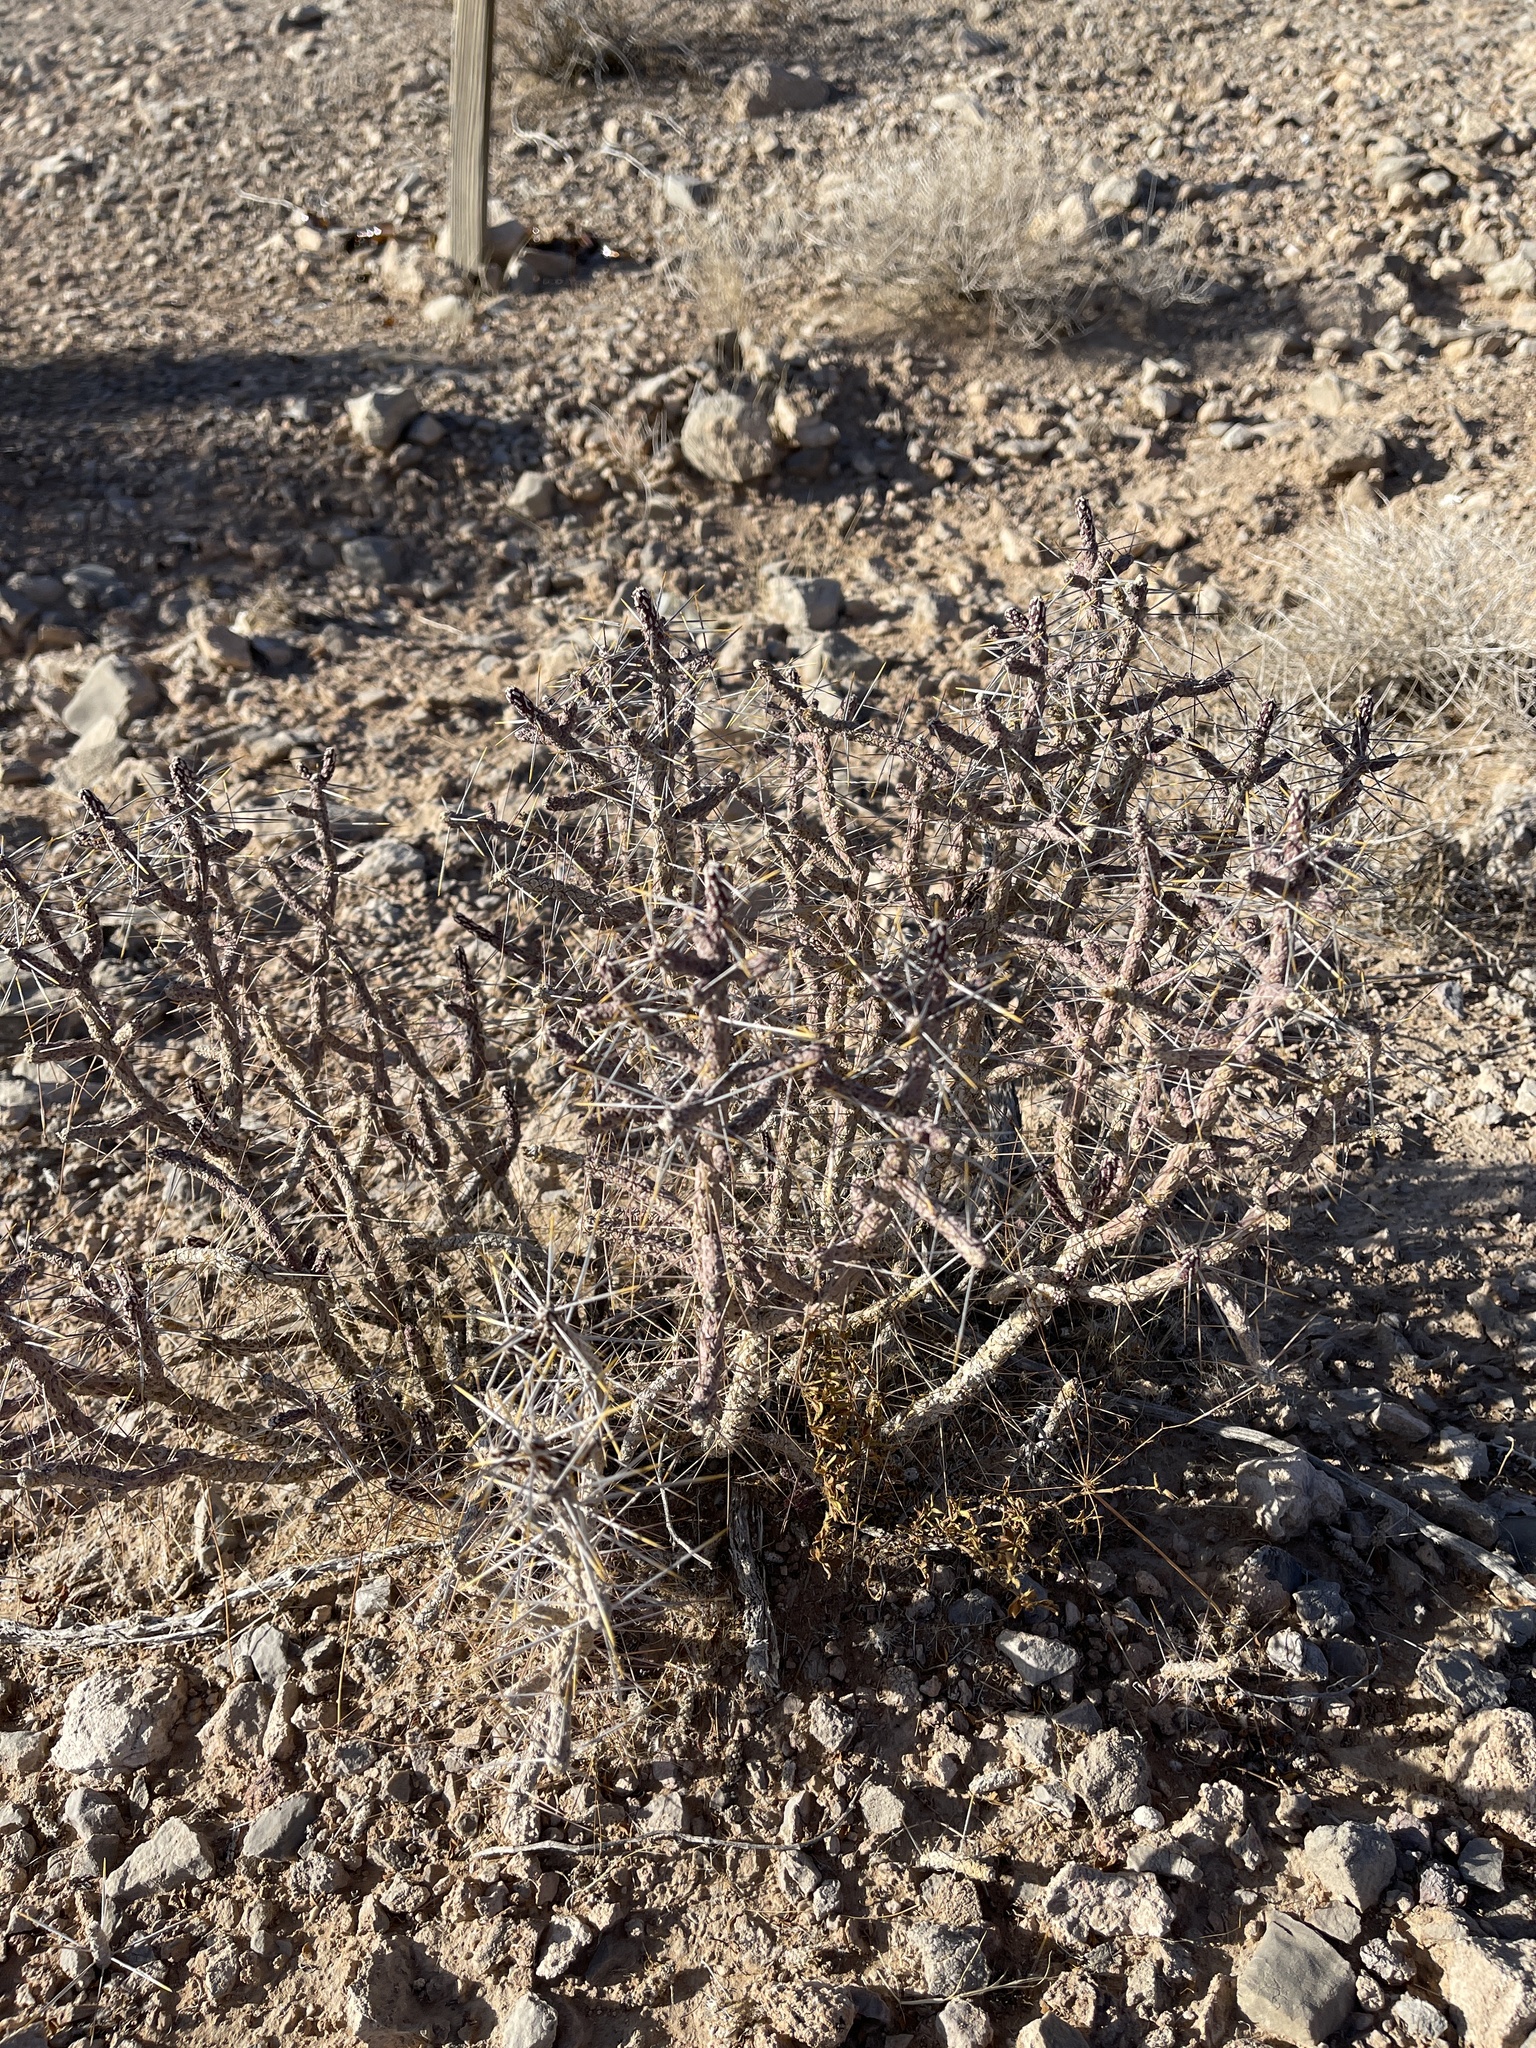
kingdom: Plantae
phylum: Tracheophyta
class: Magnoliopsida
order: Caryophyllales
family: Cactaceae
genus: Cylindropuntia
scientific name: Cylindropuntia ramosissima
